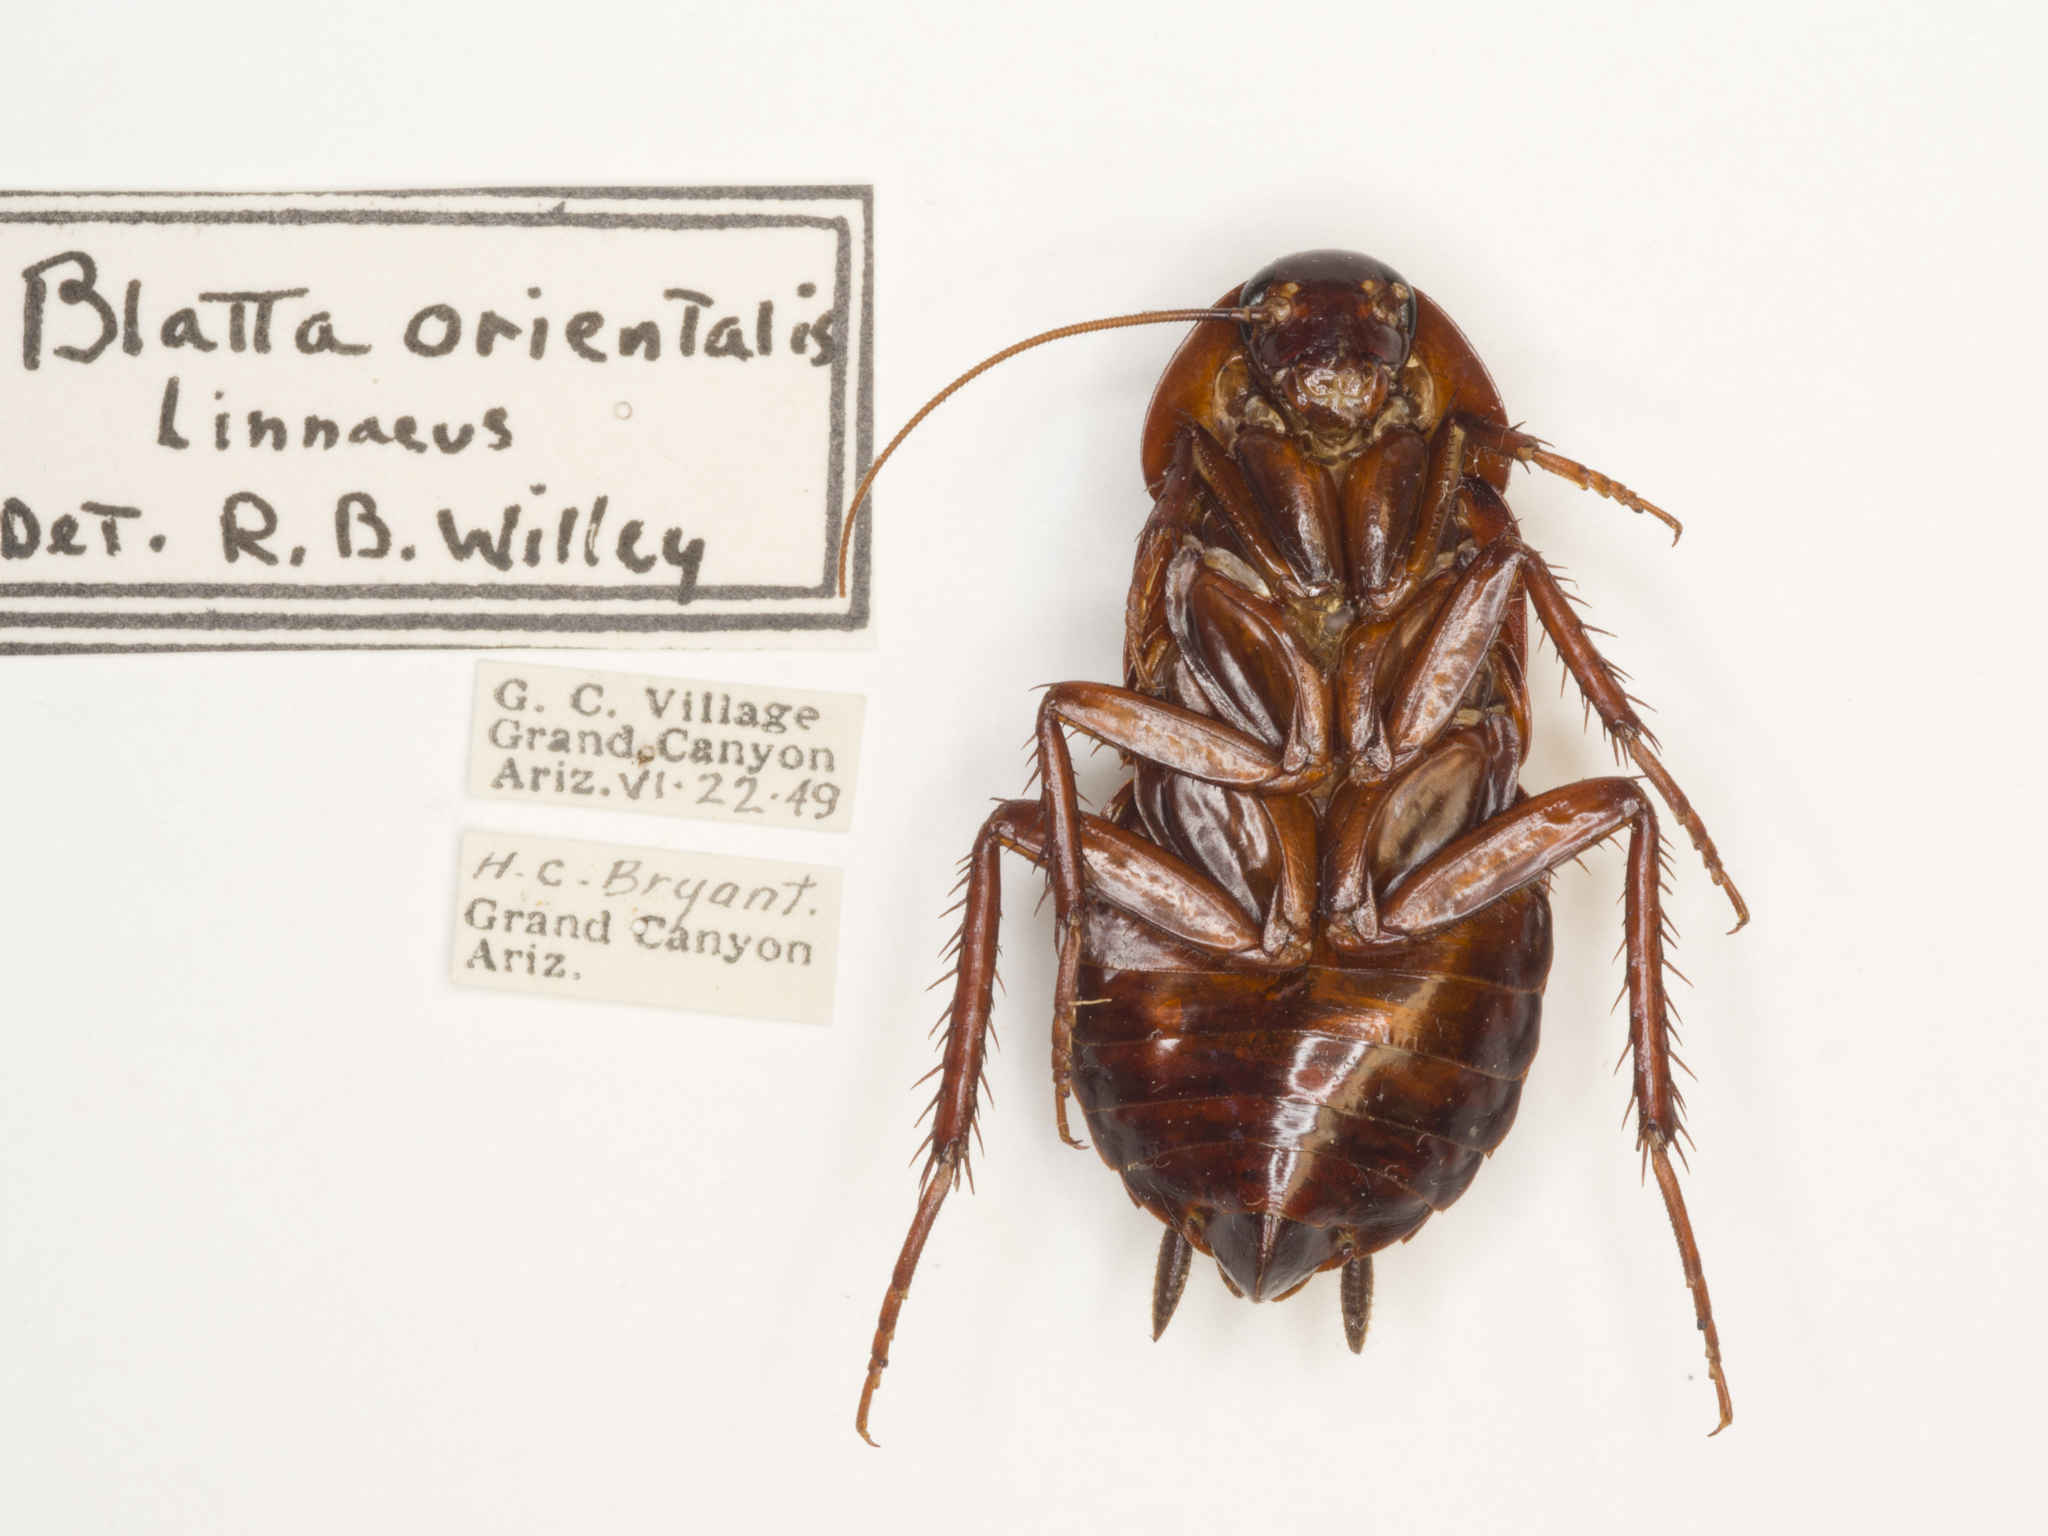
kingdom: Animalia
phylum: Arthropoda
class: Insecta
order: Blattodea
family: Blattidae
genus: Blatta
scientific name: Blatta orientalis
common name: Oriental cockroach
